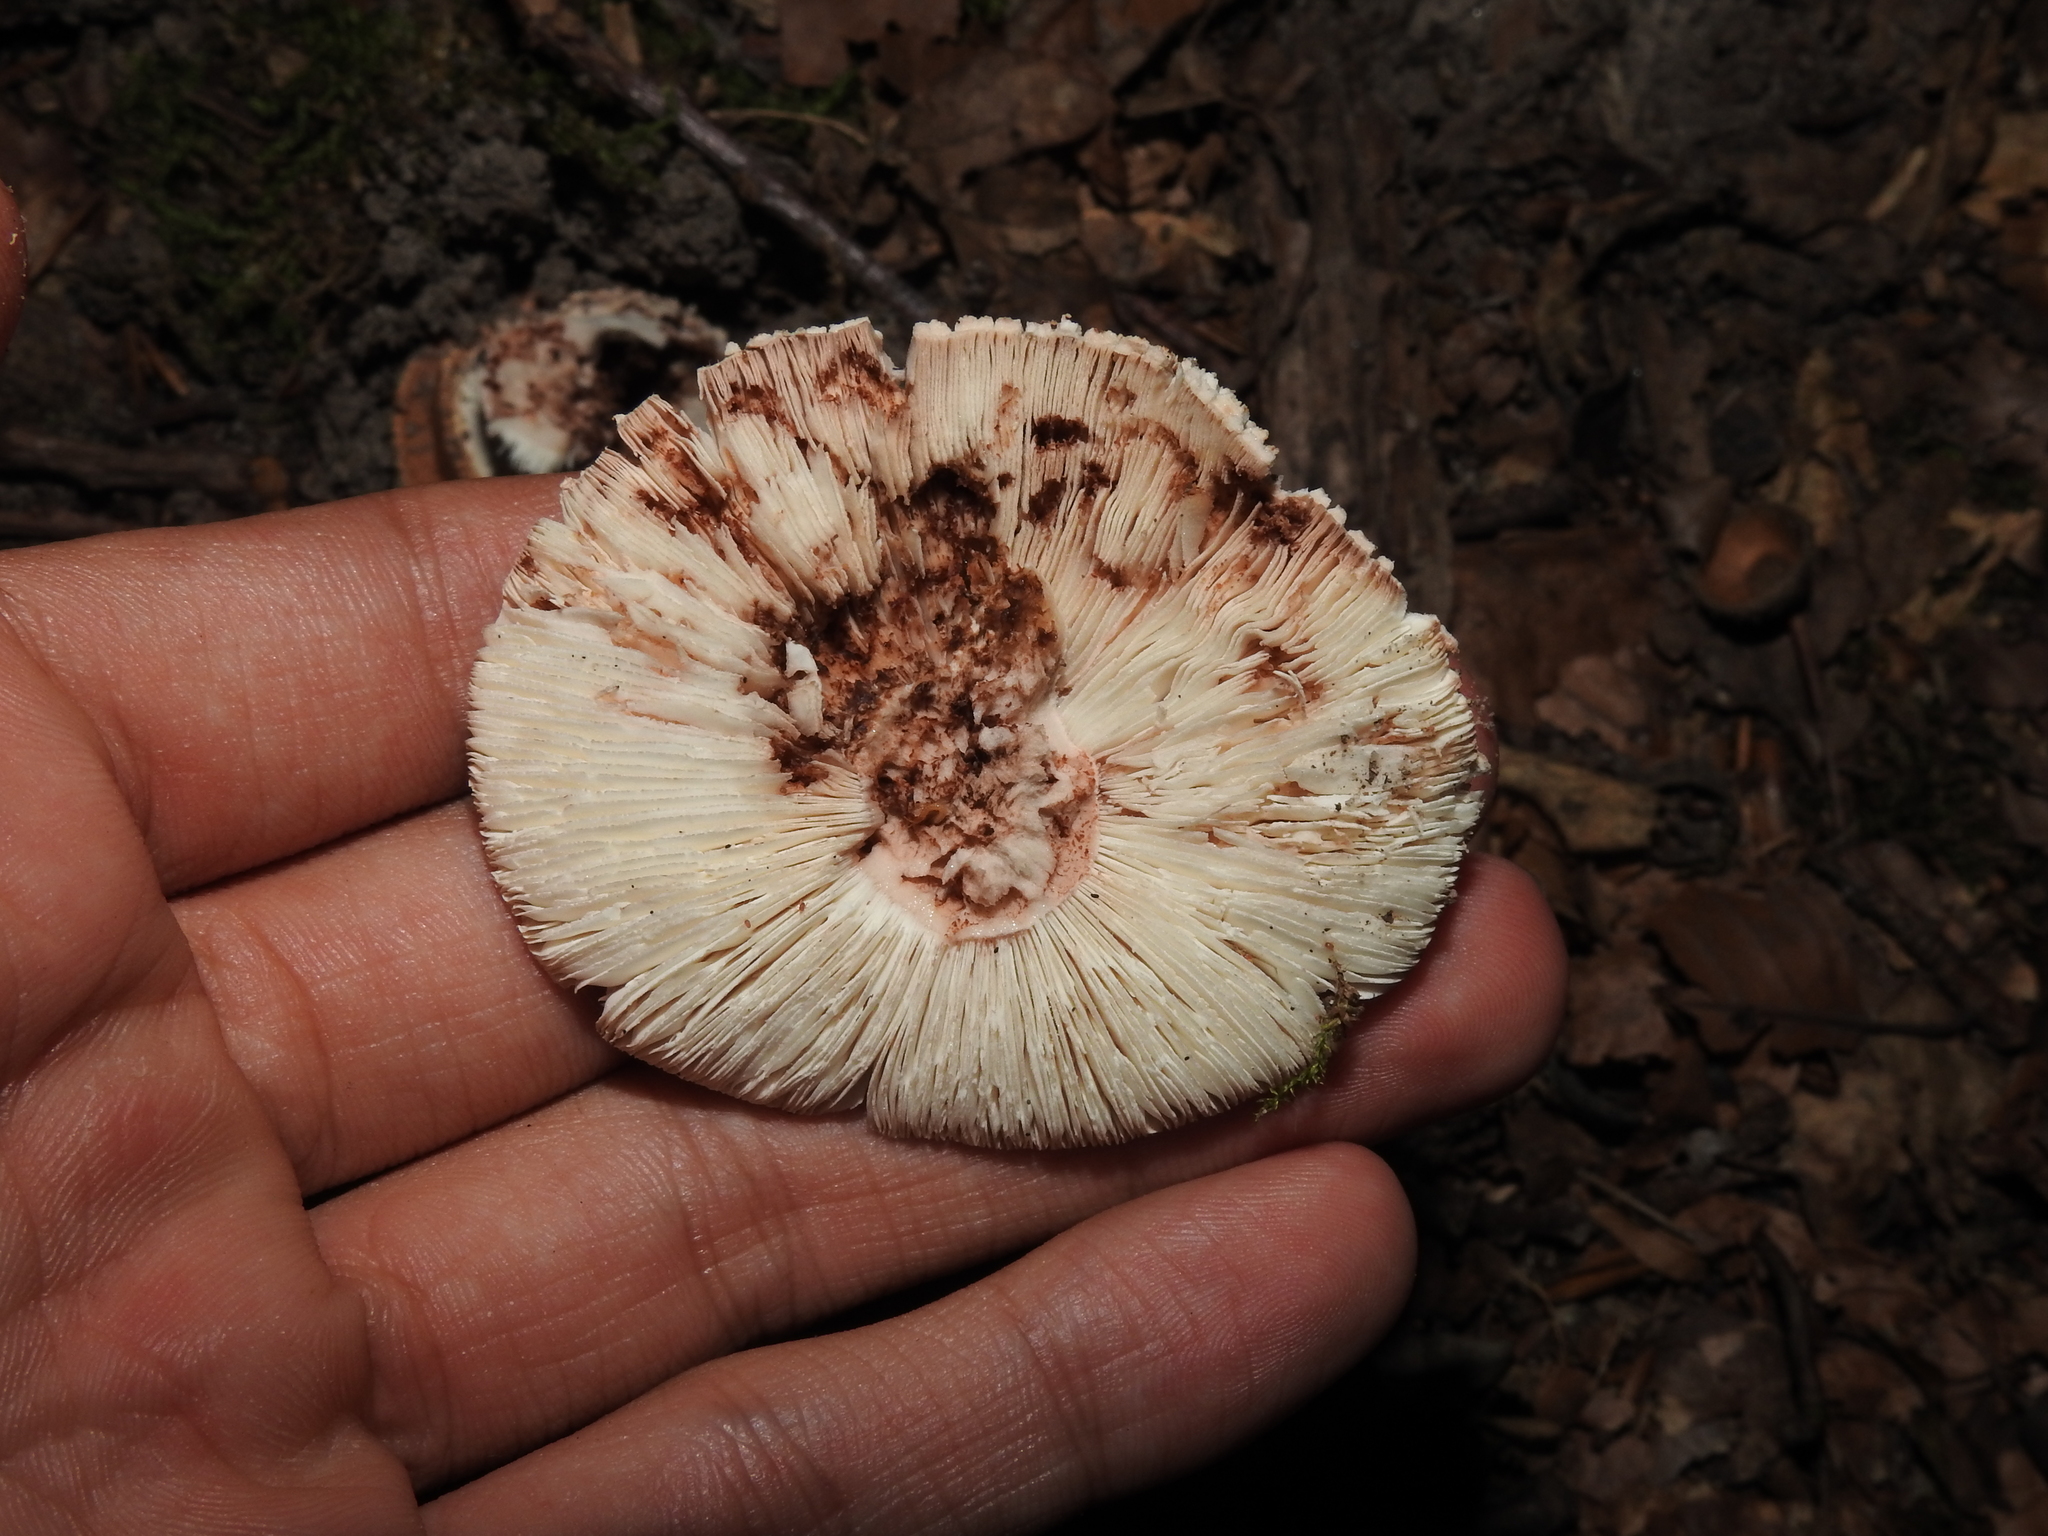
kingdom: Fungi
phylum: Basidiomycota
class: Agaricomycetes
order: Agaricales
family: Amanitaceae
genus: Amanita
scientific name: Amanita rubescens
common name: Blusher
